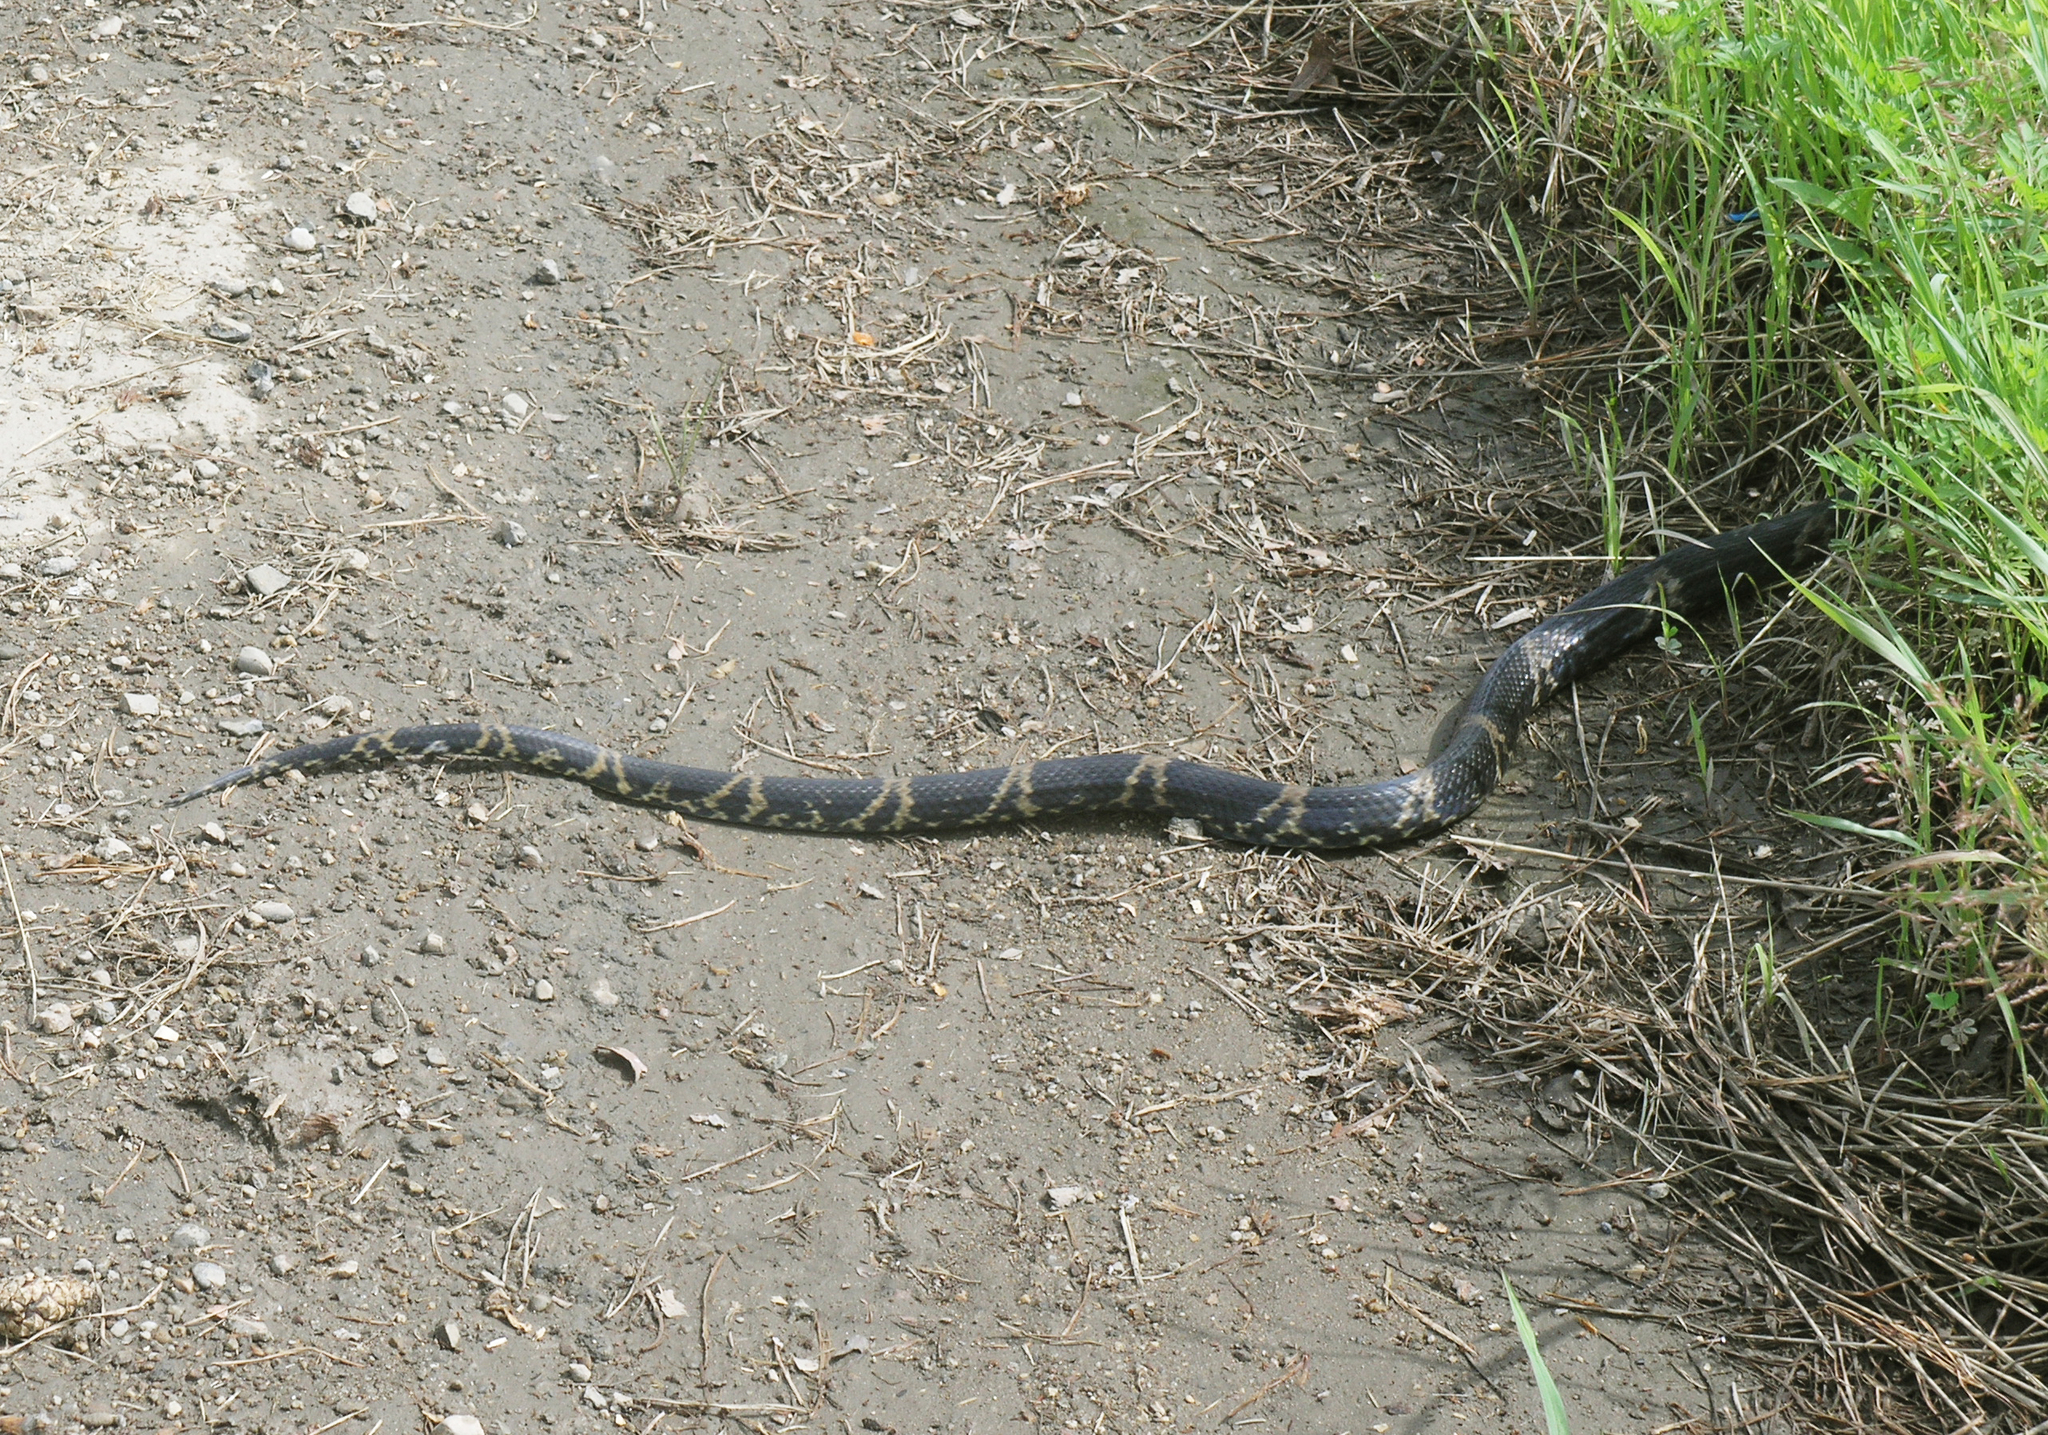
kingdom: Animalia
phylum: Chordata
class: Squamata
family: Colubridae
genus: Elaphe
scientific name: Elaphe schrenckii
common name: Amur rat snake
